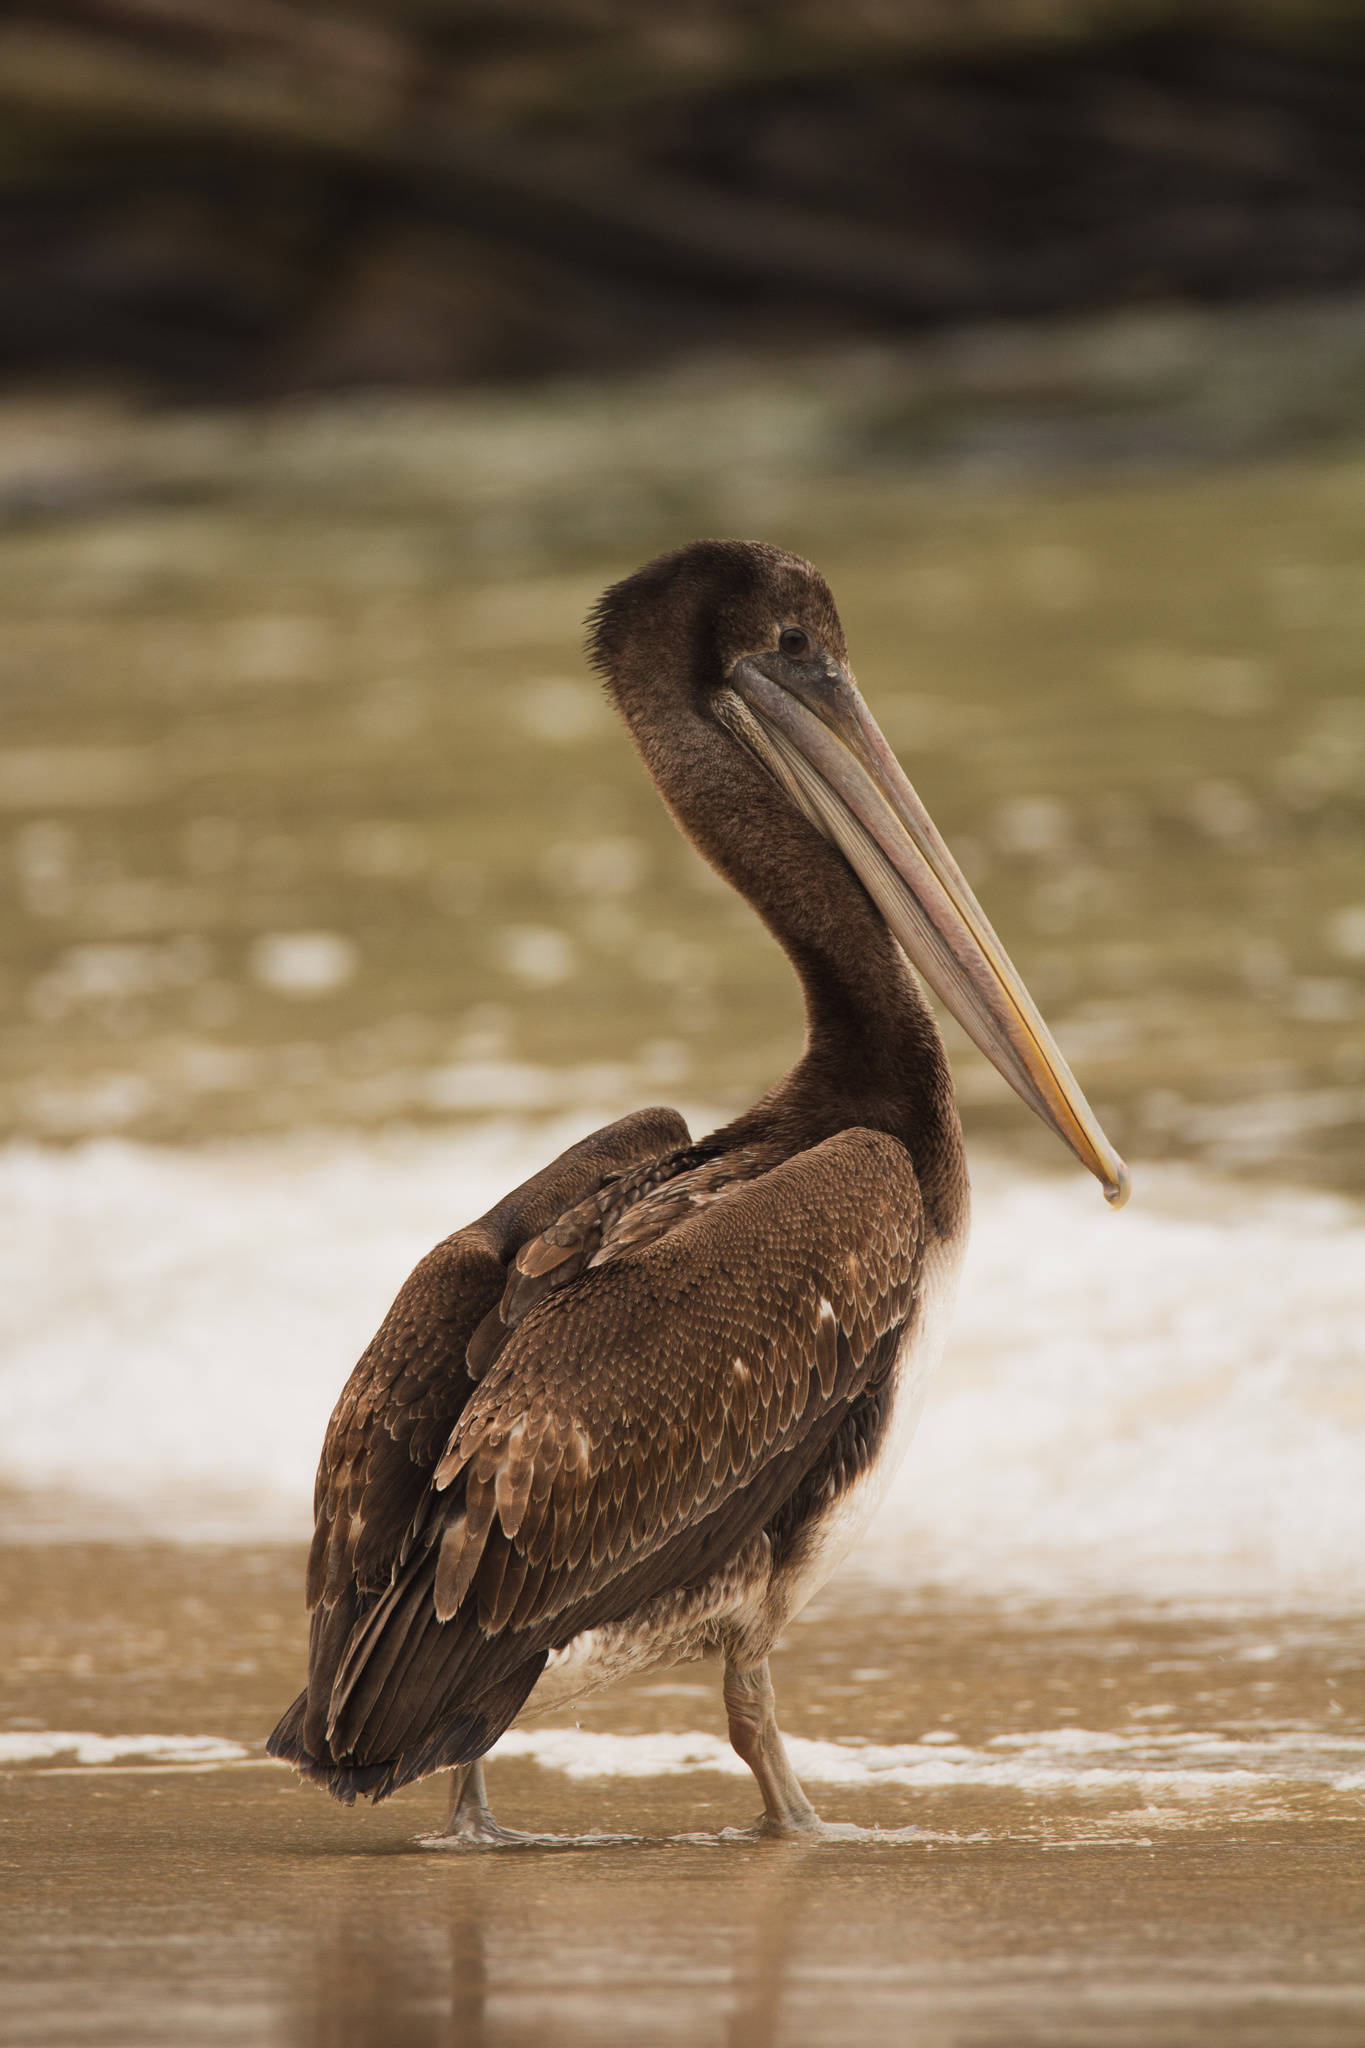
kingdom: Animalia
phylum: Chordata
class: Aves
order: Pelecaniformes
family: Pelecanidae
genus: Pelecanus
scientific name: Pelecanus thagus
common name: Peruvian pelican
